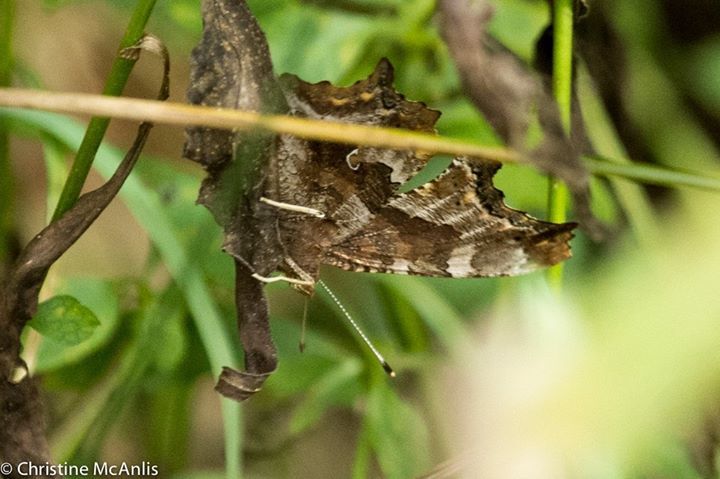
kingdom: Animalia
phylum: Arthropoda
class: Insecta
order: Lepidoptera
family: Nymphalidae
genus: Polygonia
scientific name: Polygonia comma
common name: Eastern comma
